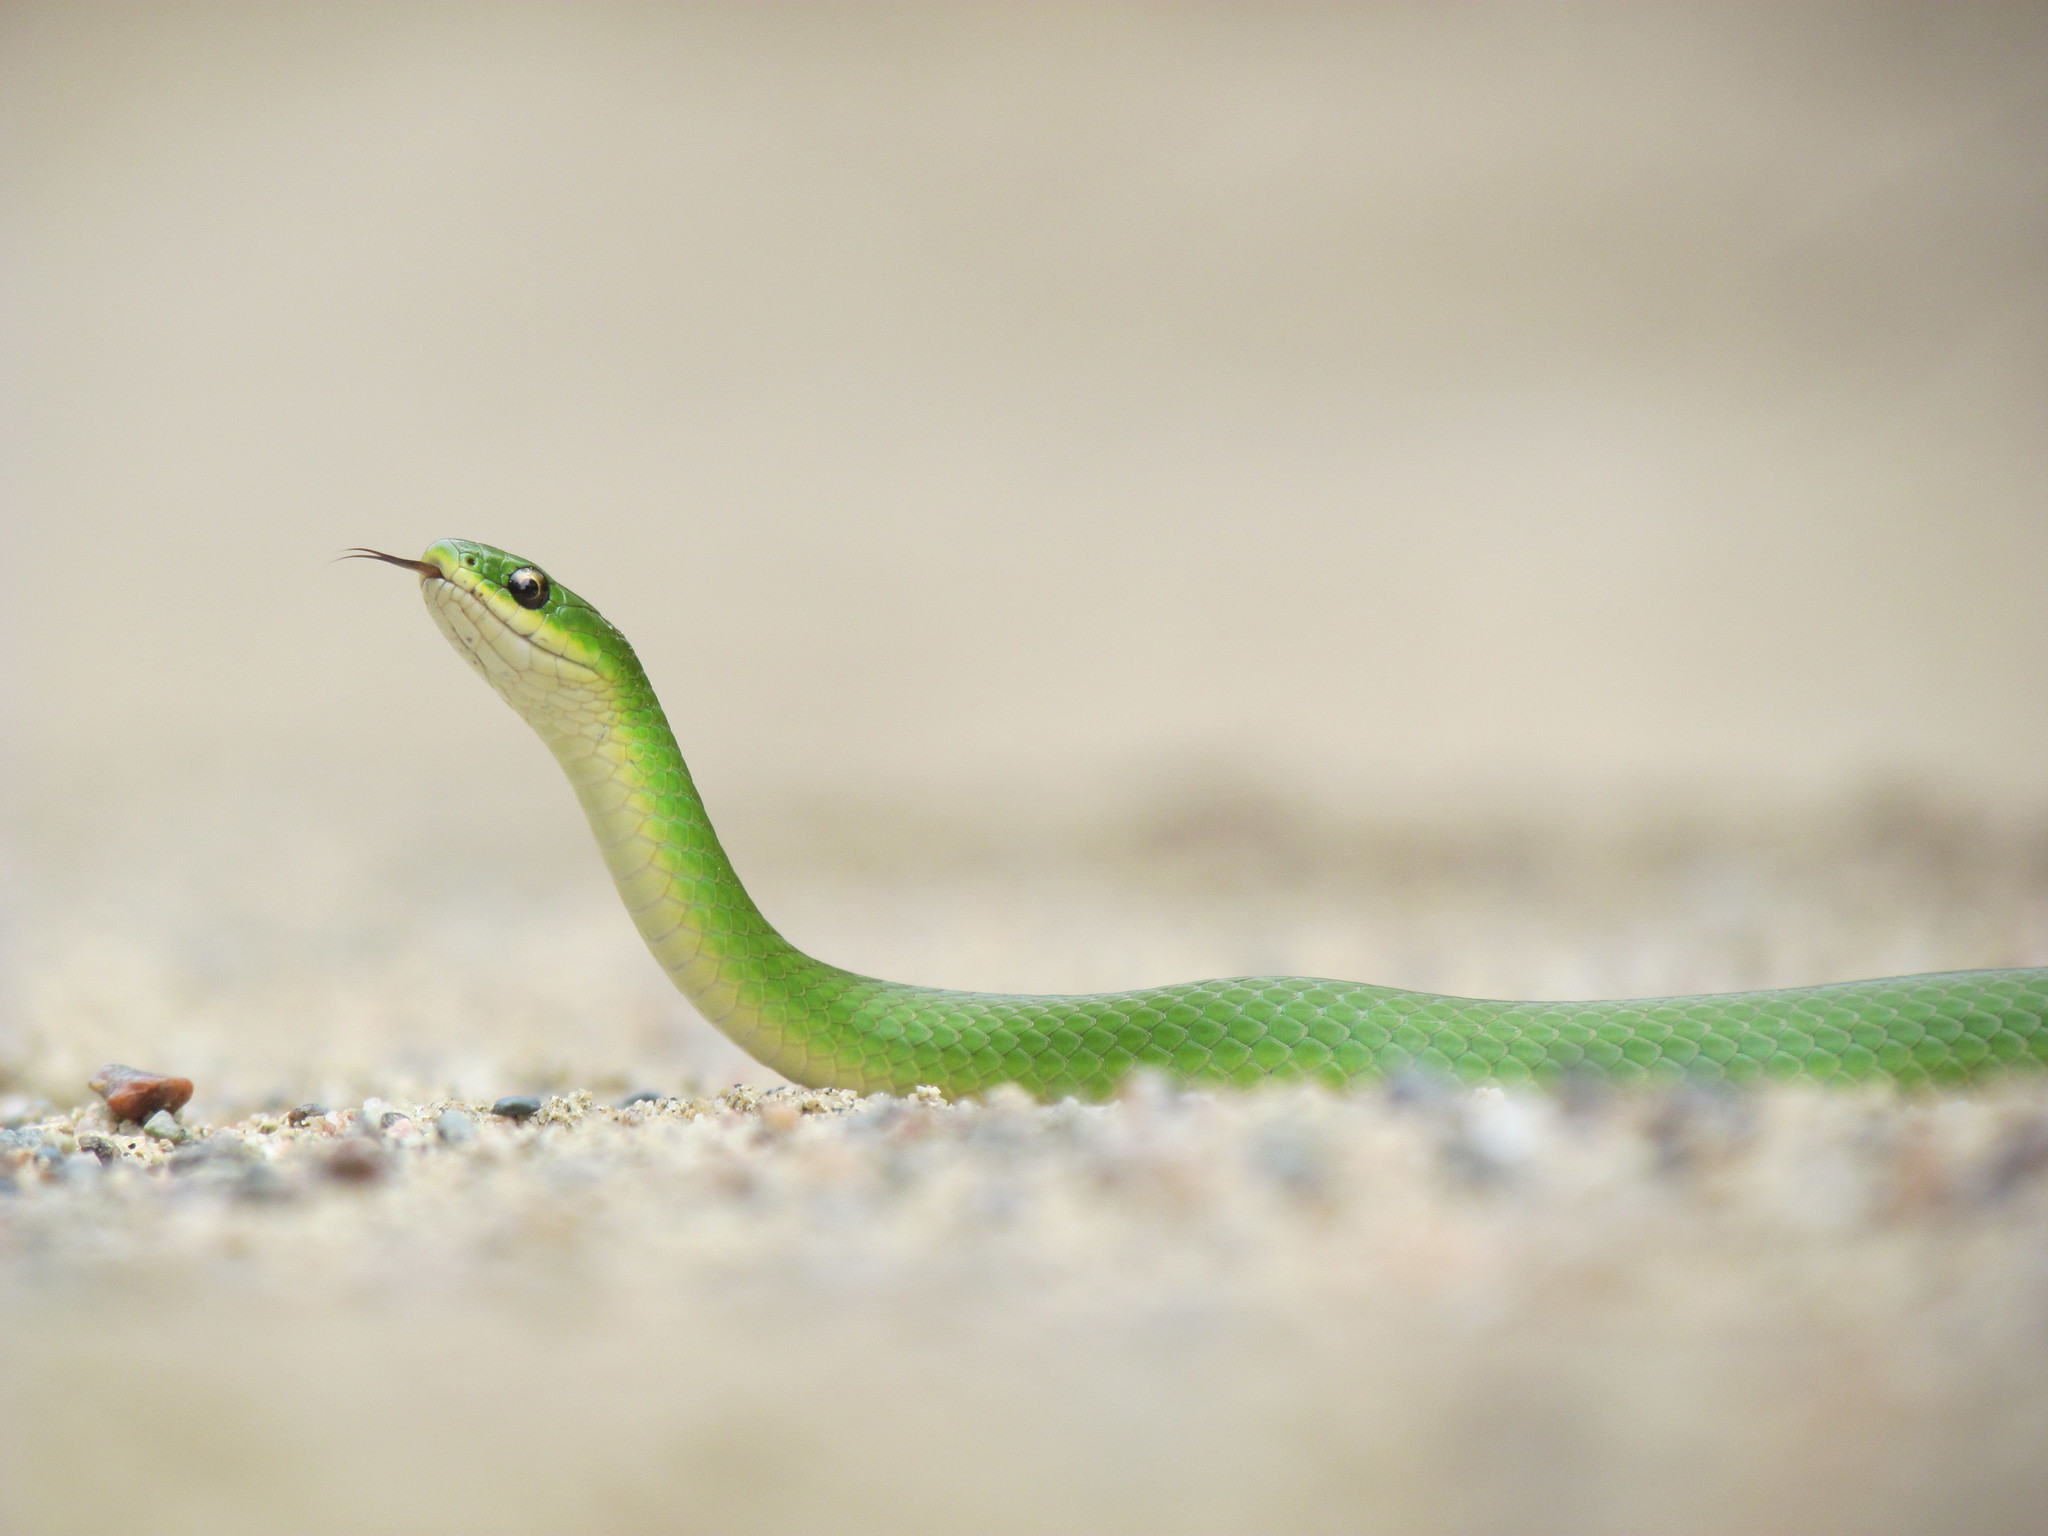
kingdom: Animalia
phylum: Chordata
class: Squamata
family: Colubridae
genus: Opheodrys
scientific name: Opheodrys vernalis
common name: Smooth green snake
